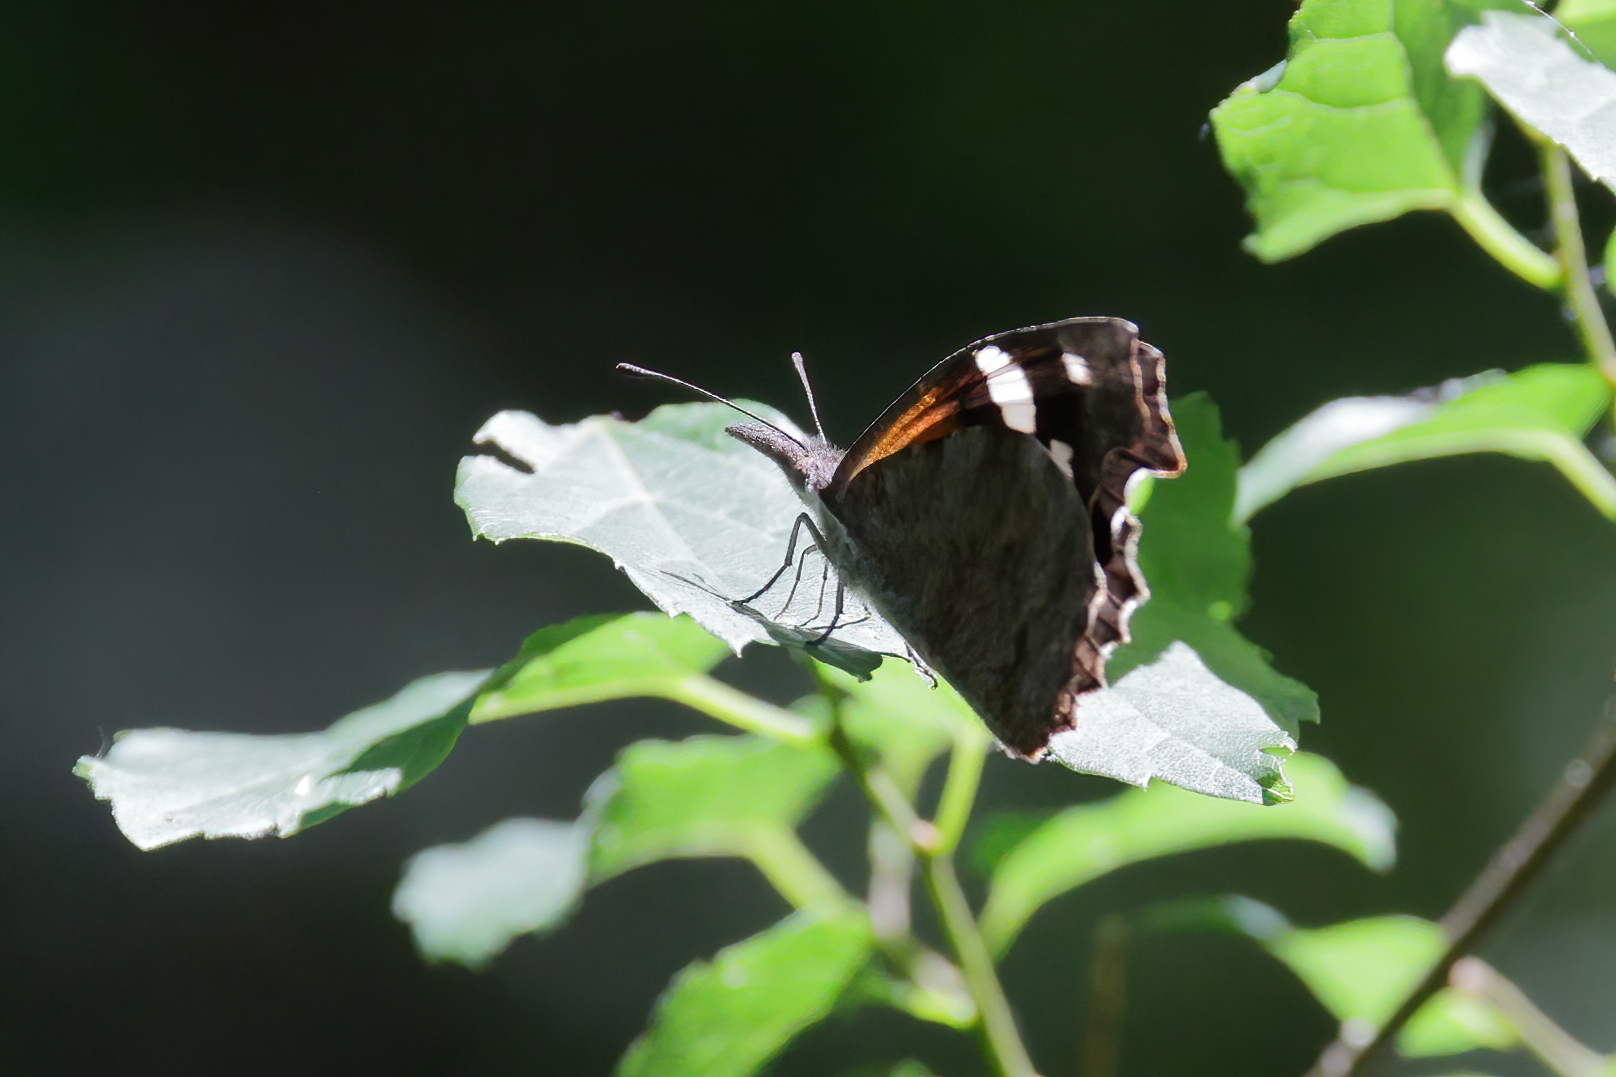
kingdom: Animalia
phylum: Arthropoda
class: Insecta
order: Lepidoptera
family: Nymphalidae
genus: Libytheana
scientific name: Libytheana carinenta
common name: American snout
